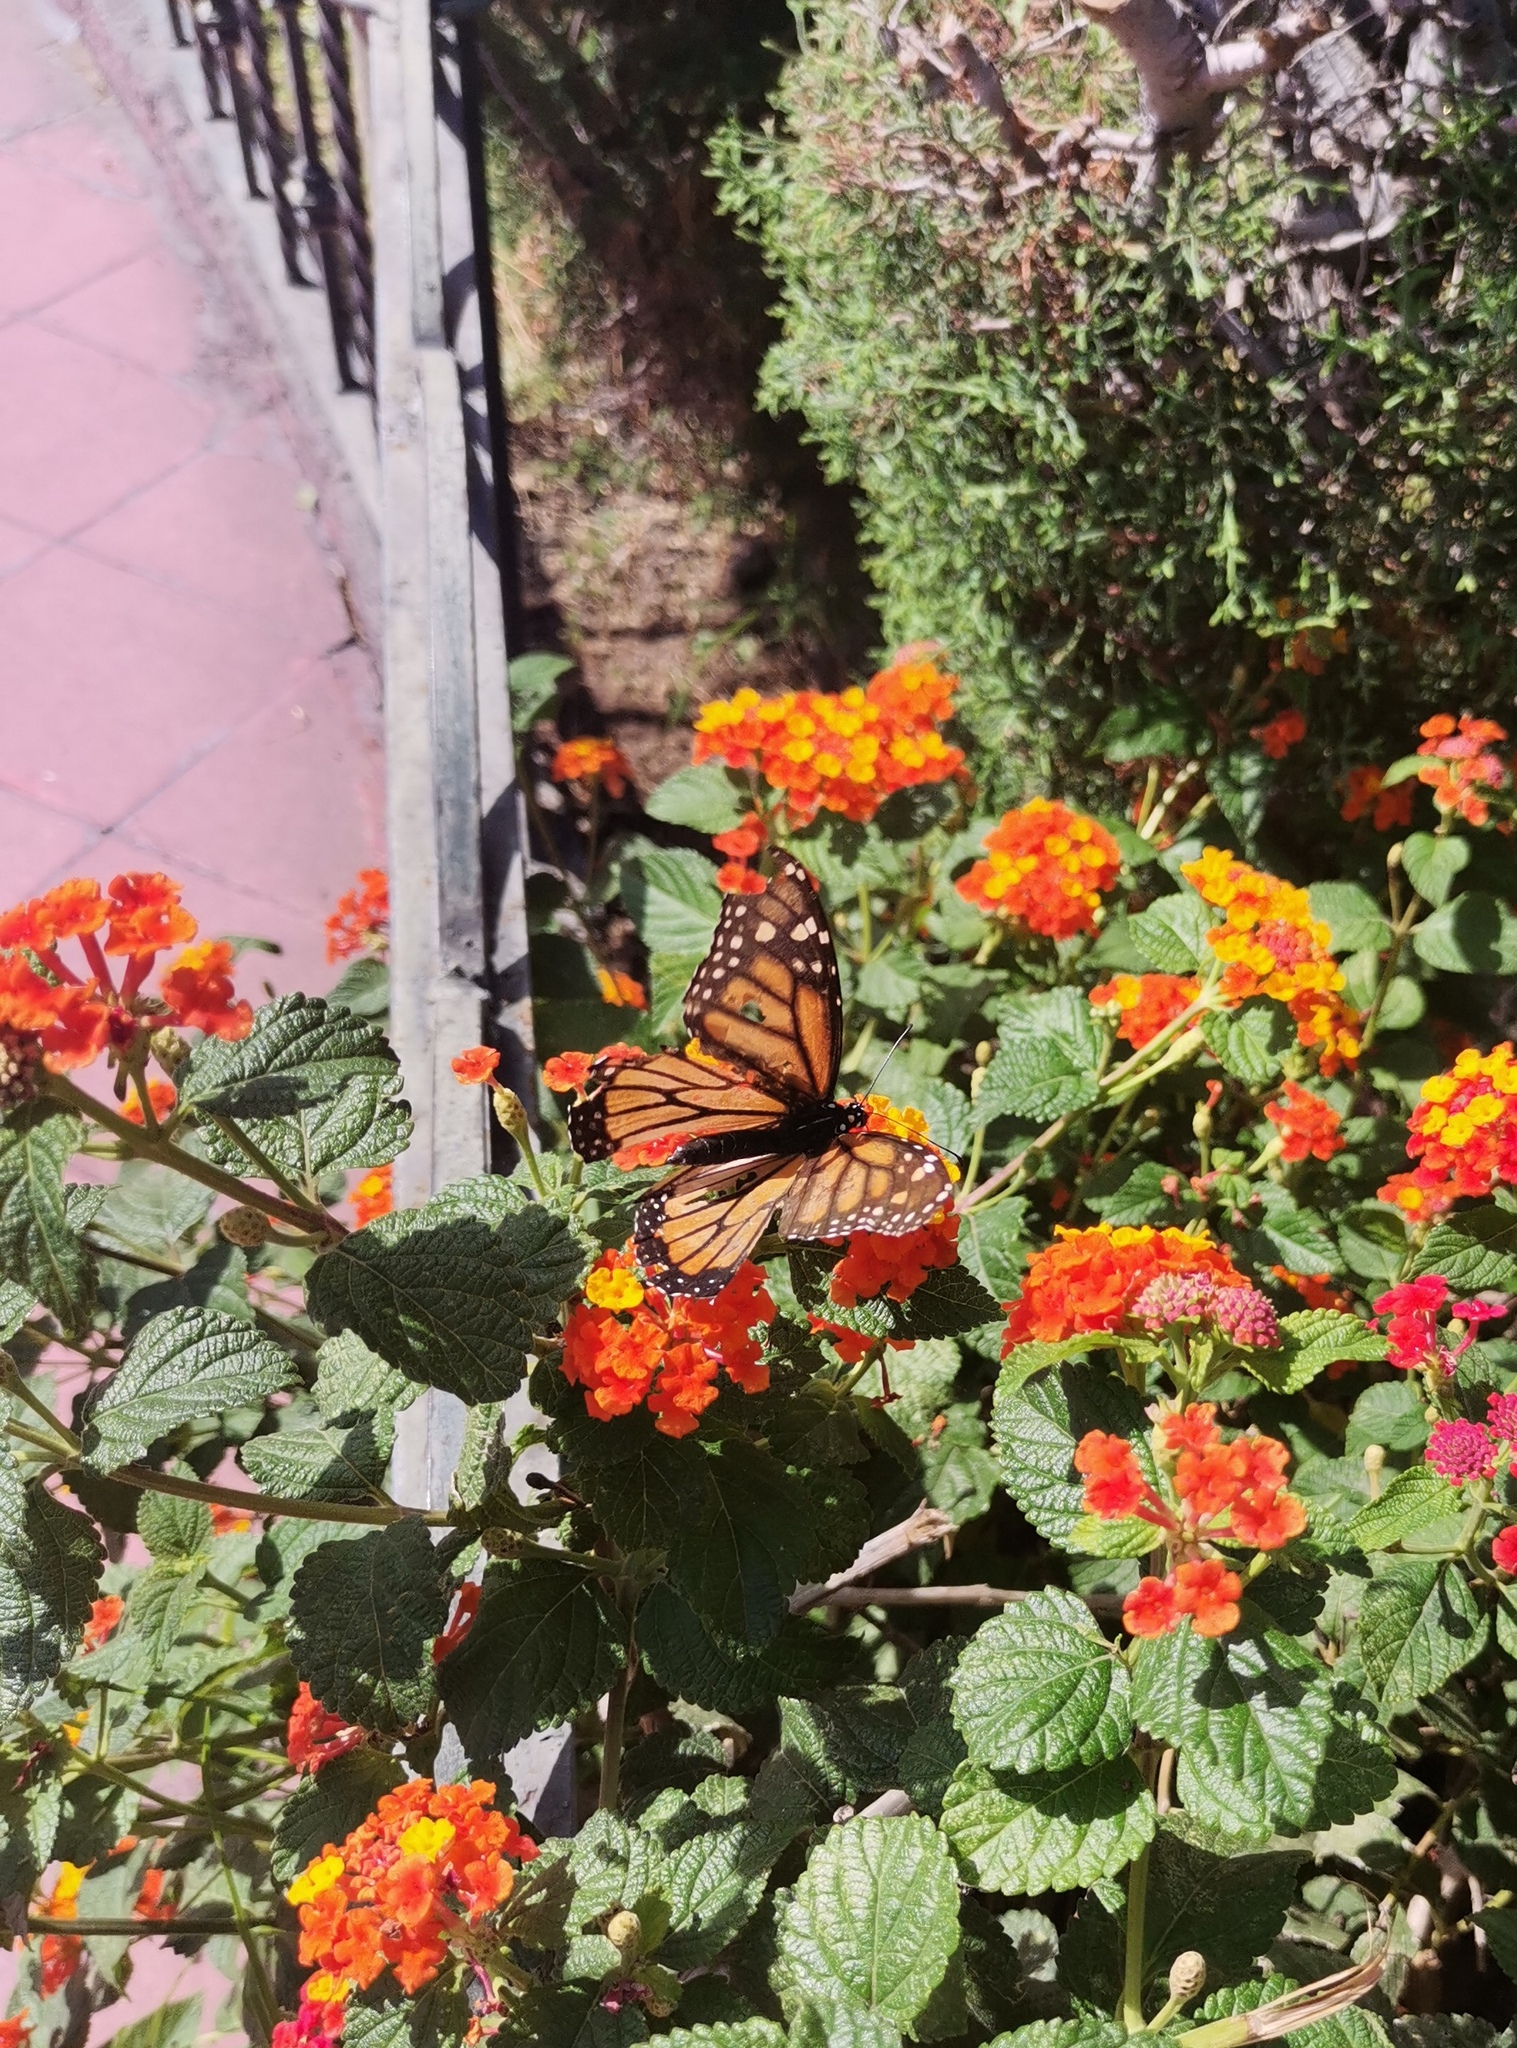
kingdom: Animalia
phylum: Arthropoda
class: Insecta
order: Lepidoptera
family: Nymphalidae
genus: Danaus
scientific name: Danaus plexippus
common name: Monarch
